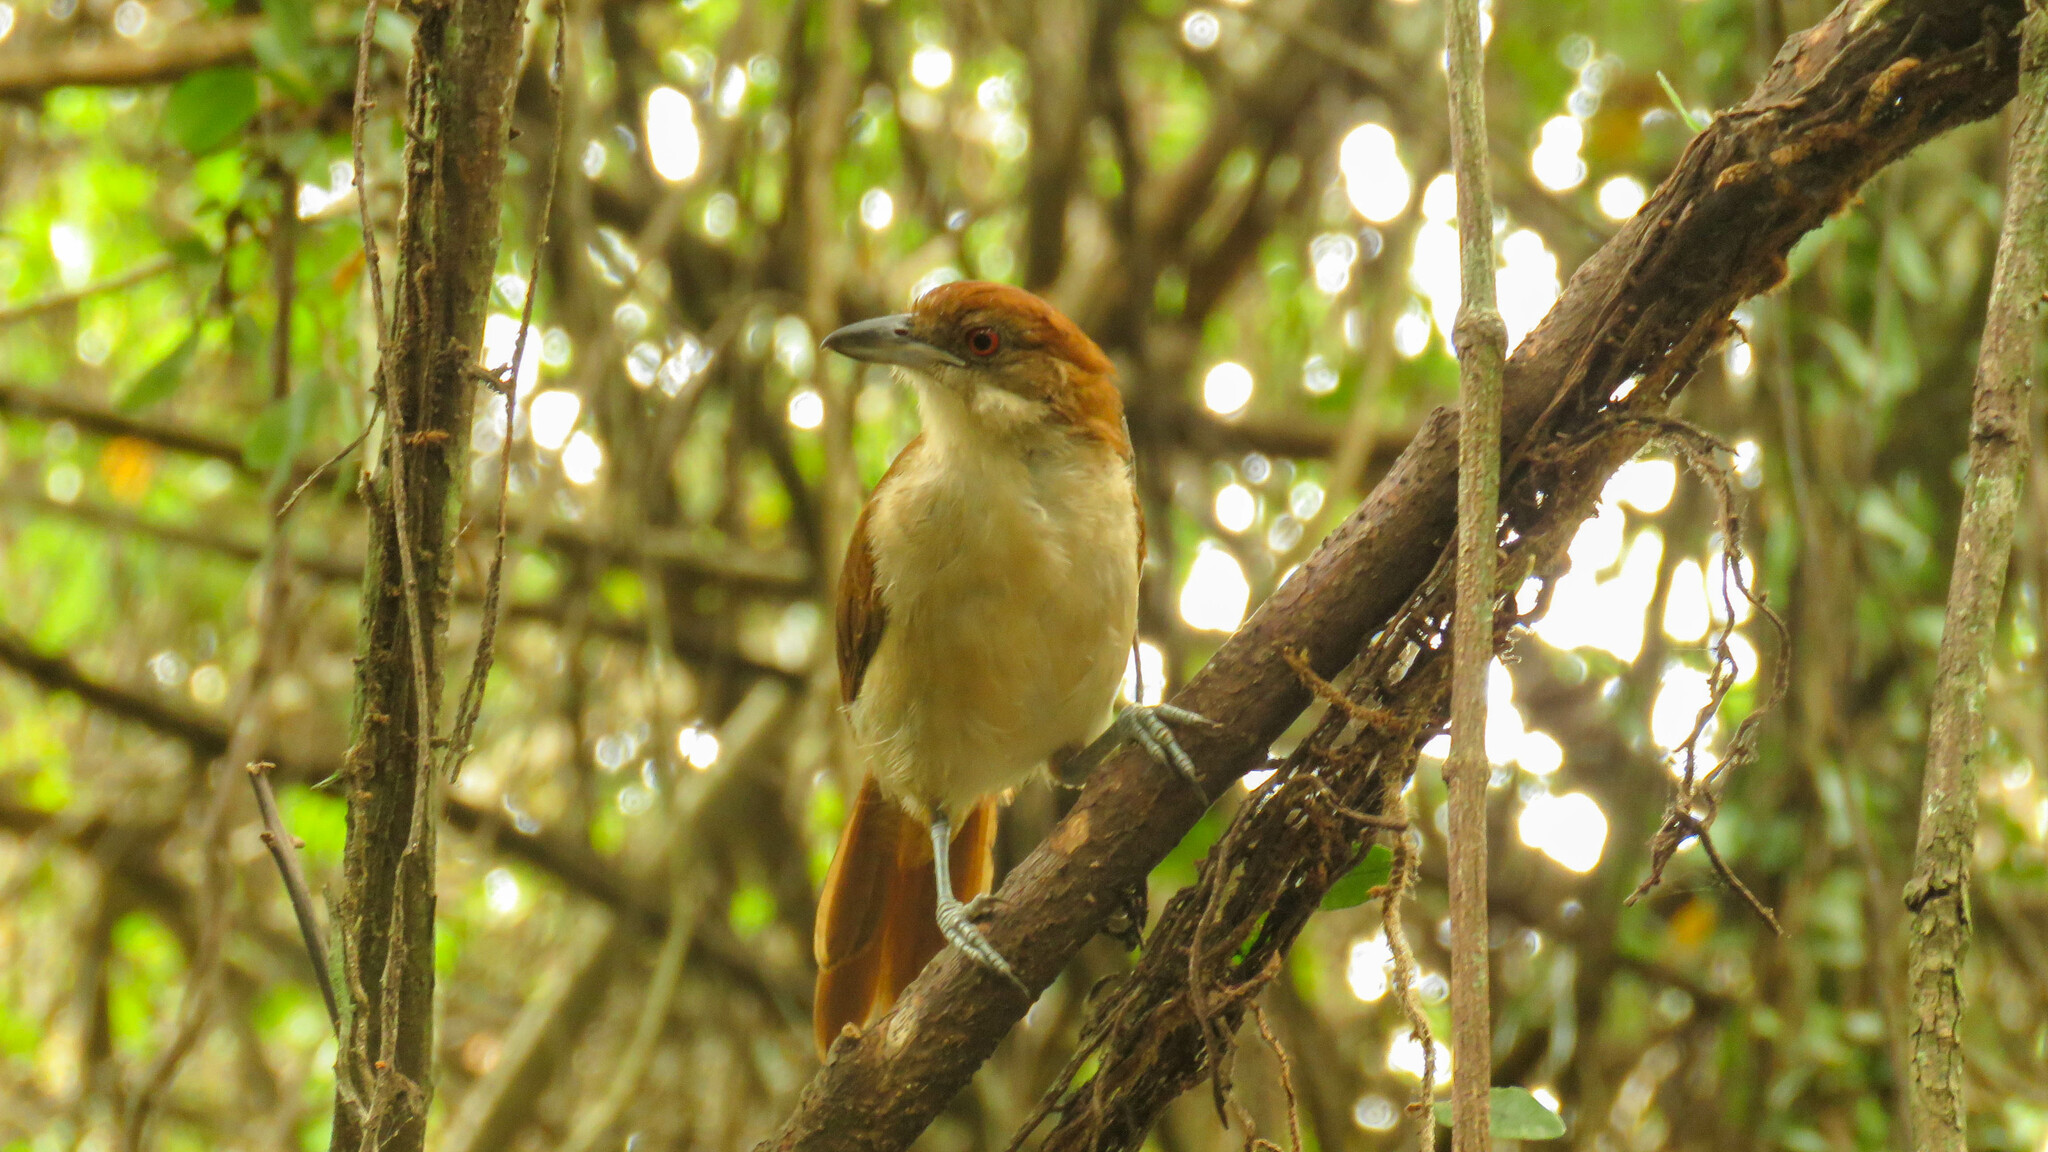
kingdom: Animalia
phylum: Chordata
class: Aves
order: Passeriformes
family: Thamnophilidae
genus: Taraba
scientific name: Taraba major
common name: Great antshrike
